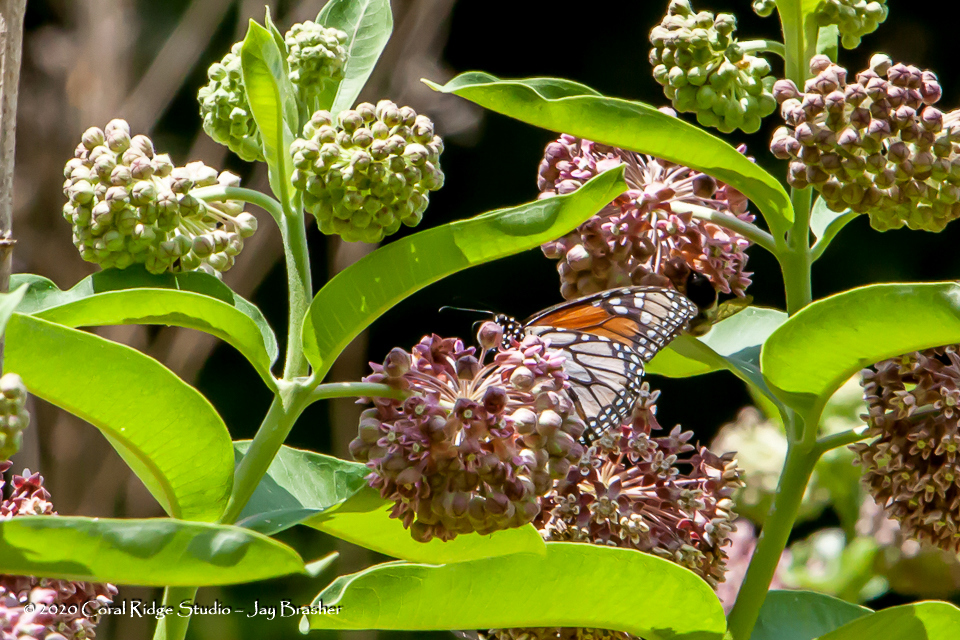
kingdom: Animalia
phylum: Arthropoda
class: Insecta
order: Lepidoptera
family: Nymphalidae
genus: Danaus
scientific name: Danaus plexippus
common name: Monarch
